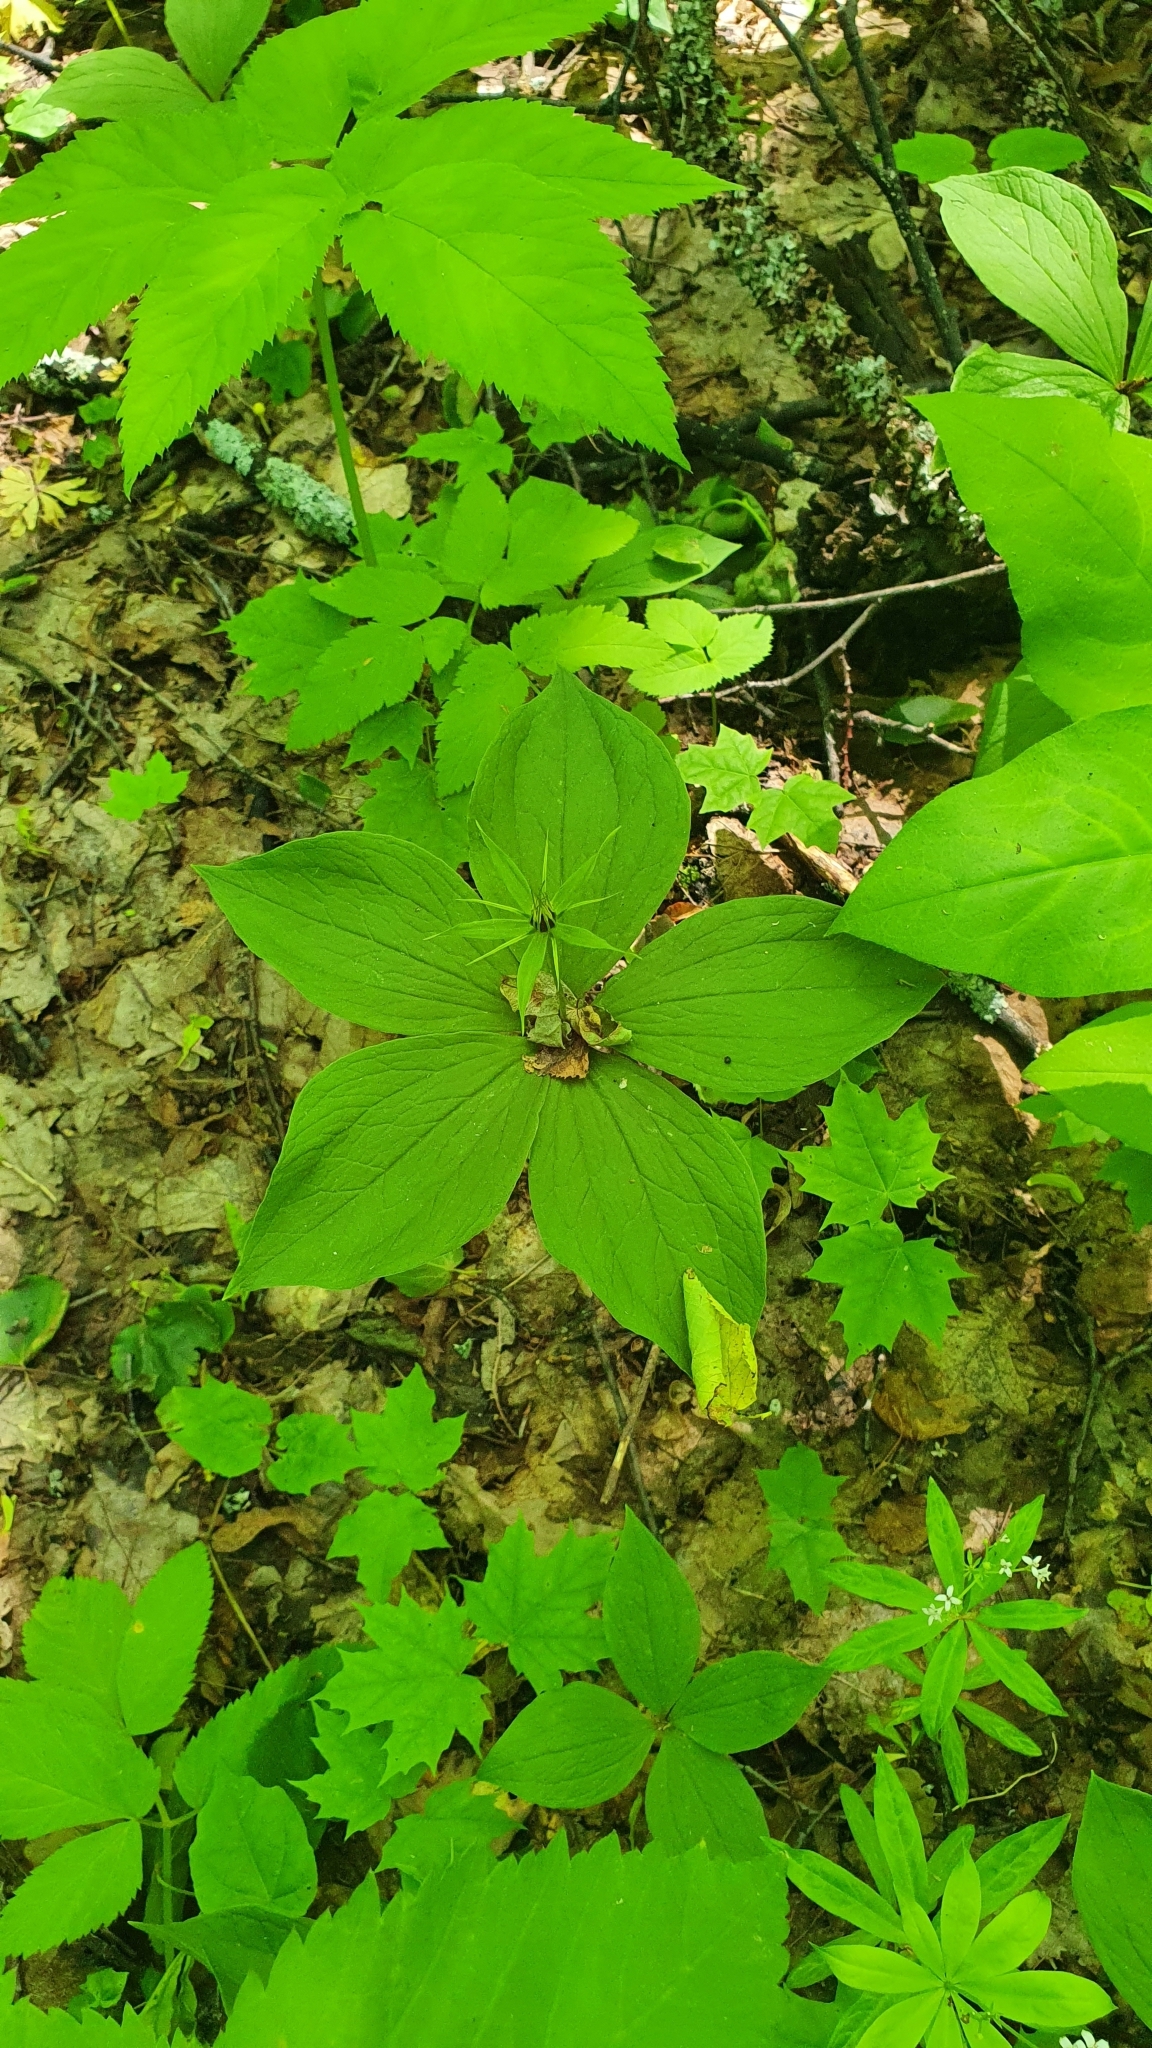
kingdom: Plantae
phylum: Tracheophyta
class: Liliopsida
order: Liliales
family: Melanthiaceae
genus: Paris
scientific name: Paris quadrifolia
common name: Herb-paris
